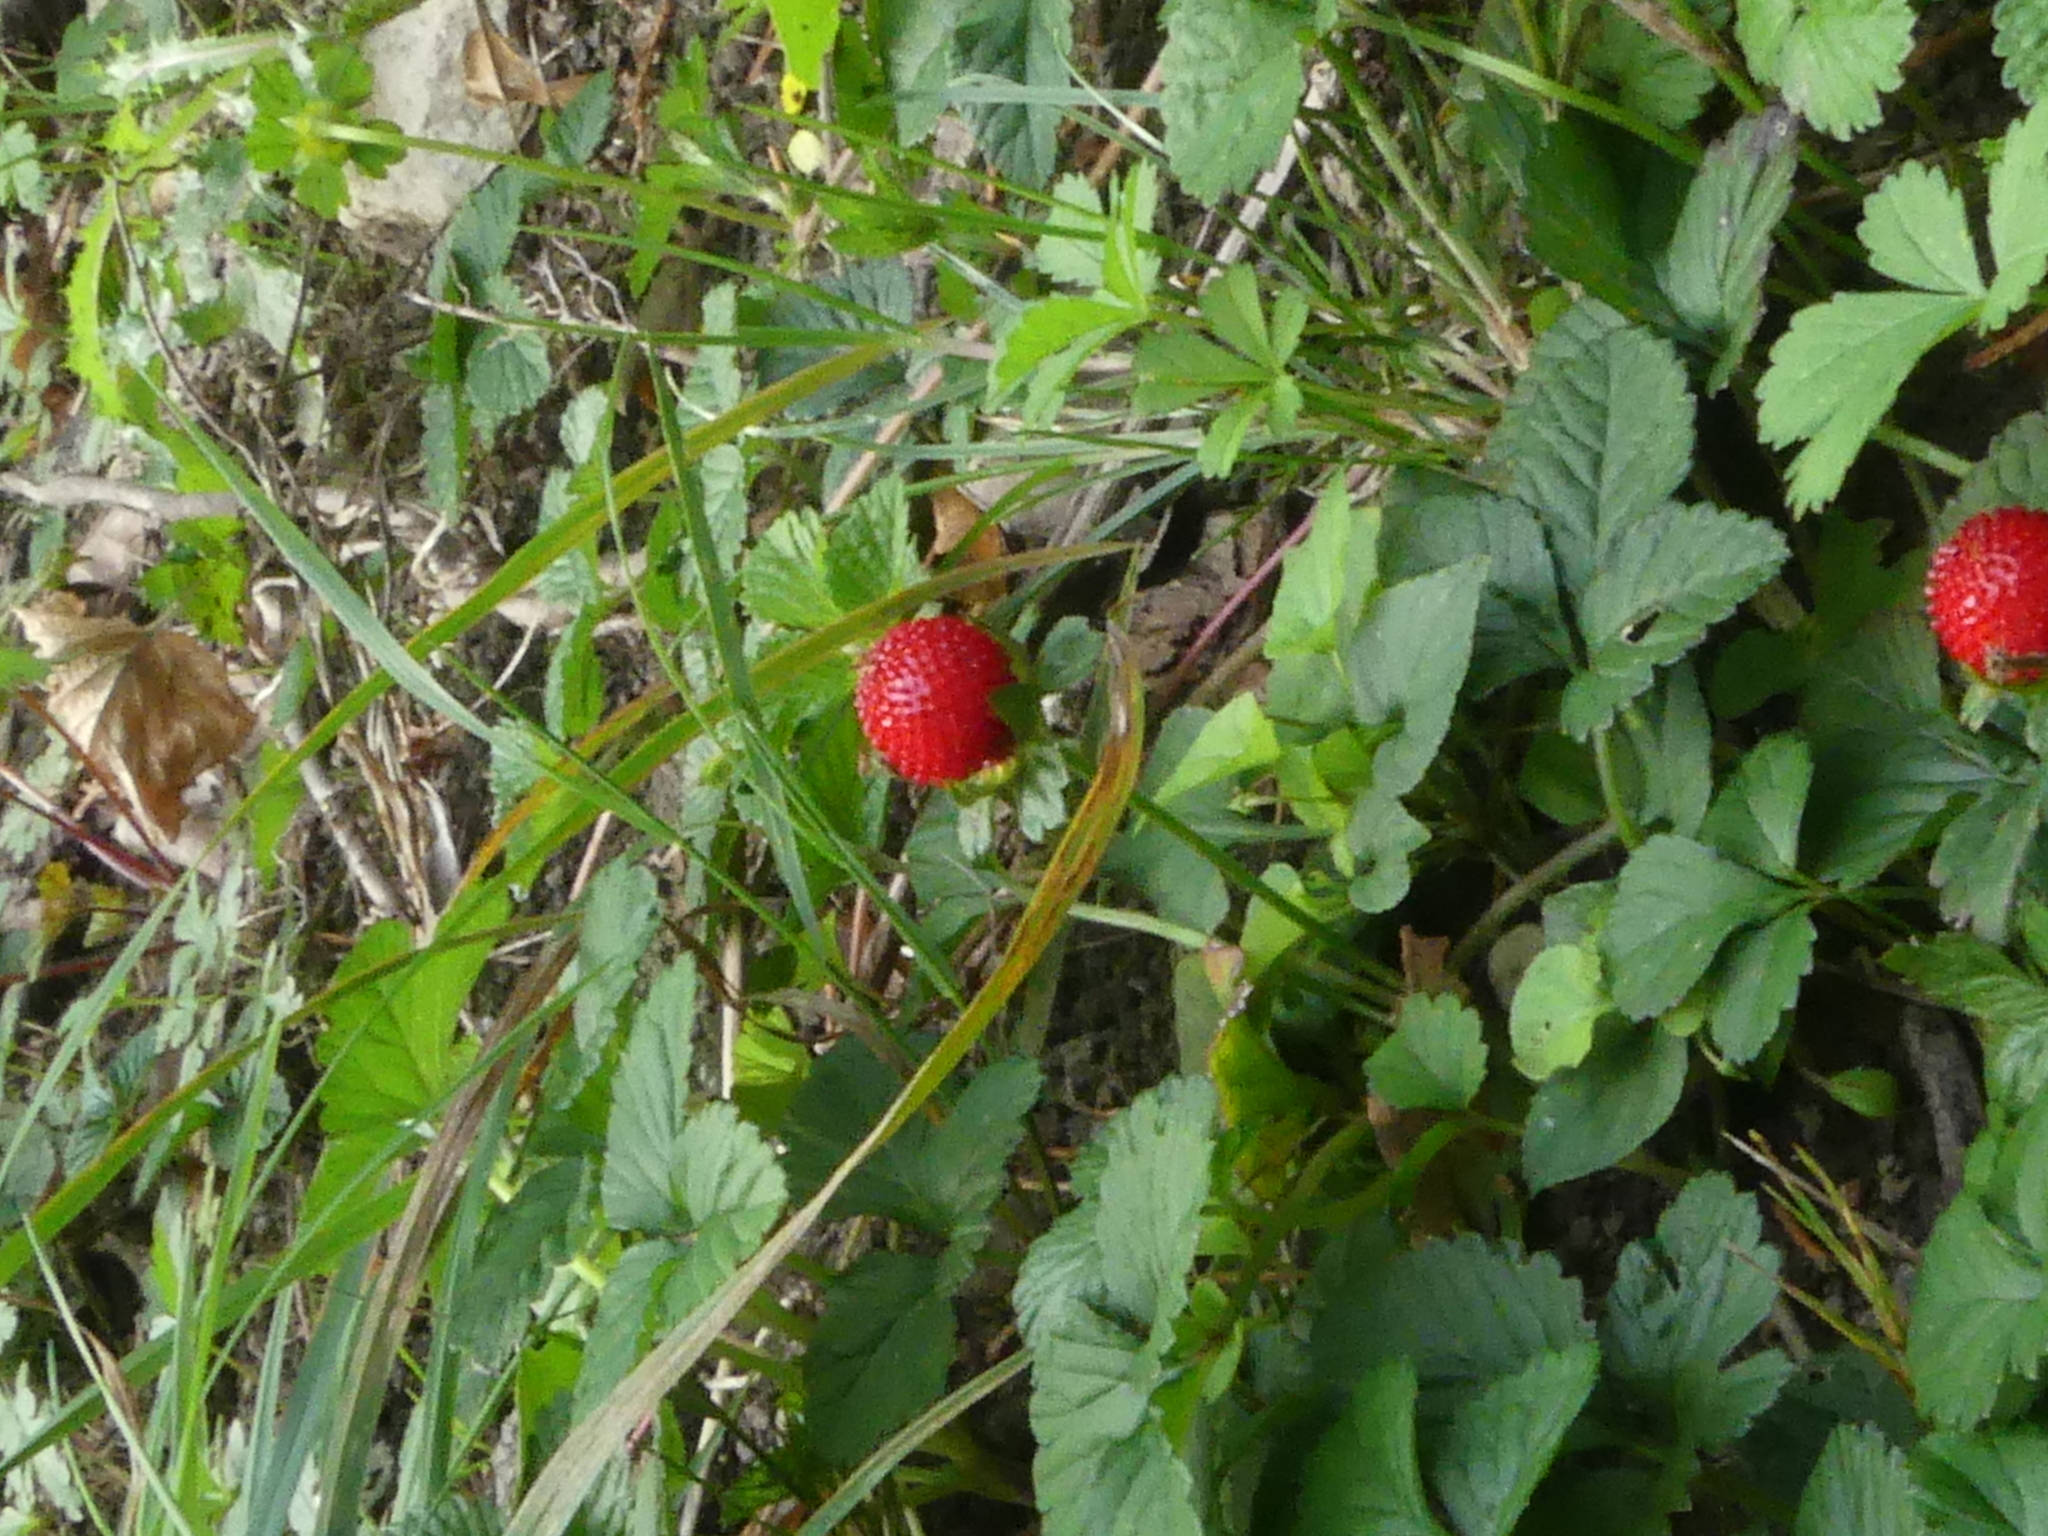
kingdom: Plantae
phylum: Tracheophyta
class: Magnoliopsida
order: Rosales
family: Rosaceae
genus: Potentilla
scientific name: Potentilla indica
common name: Yellow-flowered strawberry
